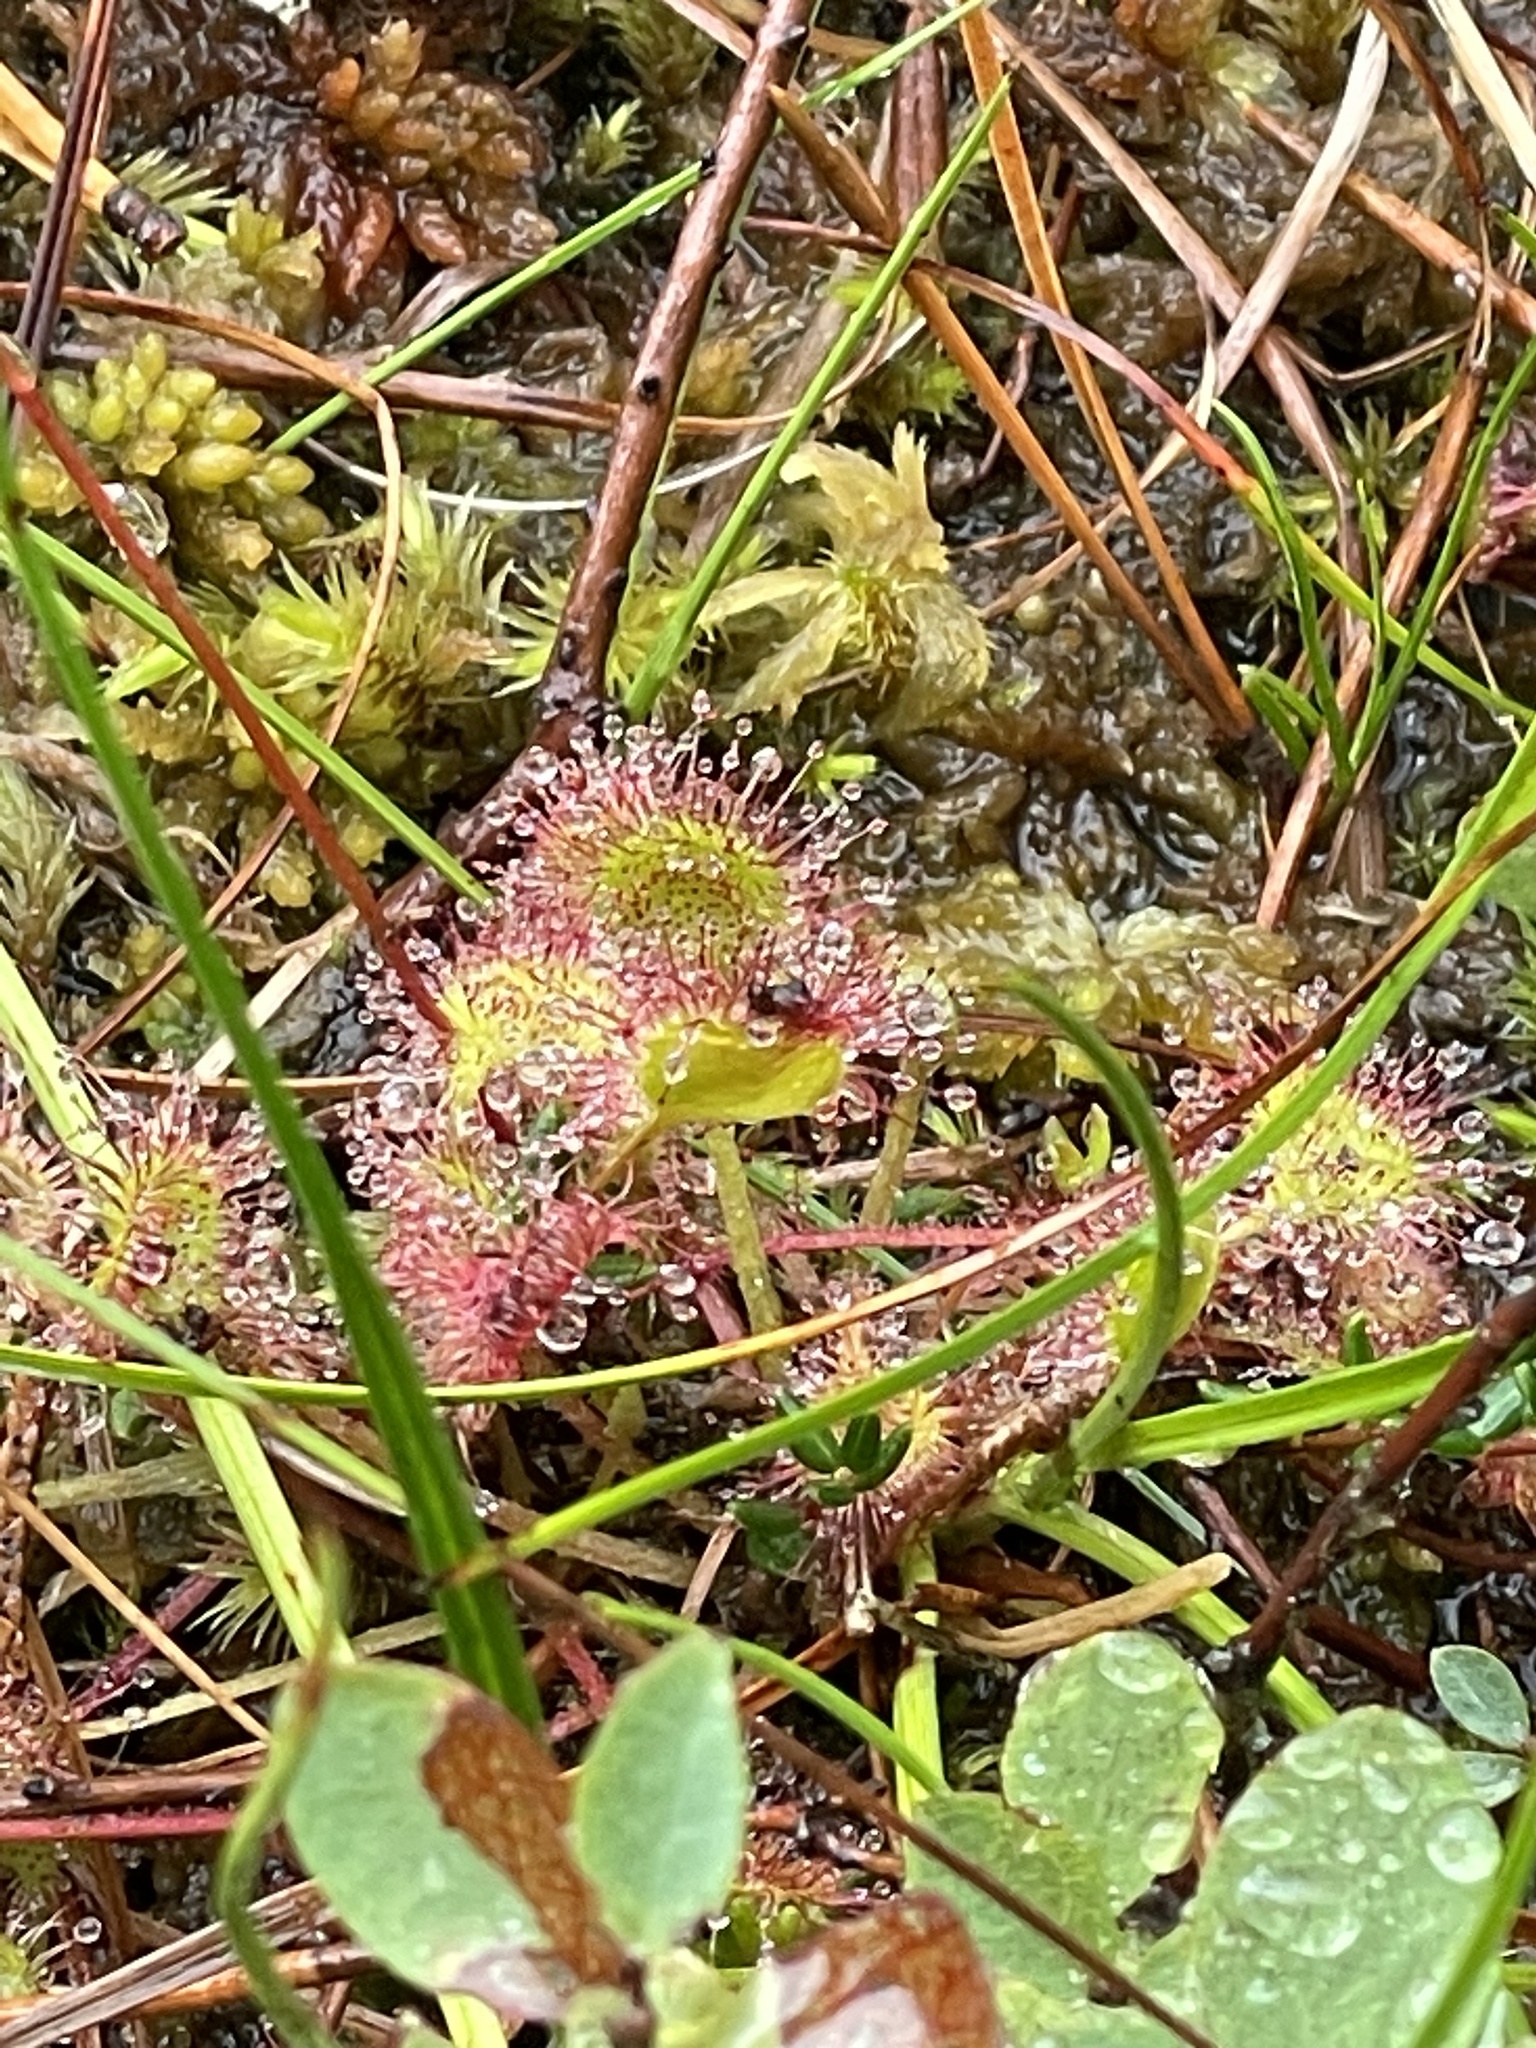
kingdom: Plantae
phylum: Tracheophyta
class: Magnoliopsida
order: Caryophyllales
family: Droseraceae
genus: Drosera
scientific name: Drosera rotundifolia
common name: Round-leaved sundew
